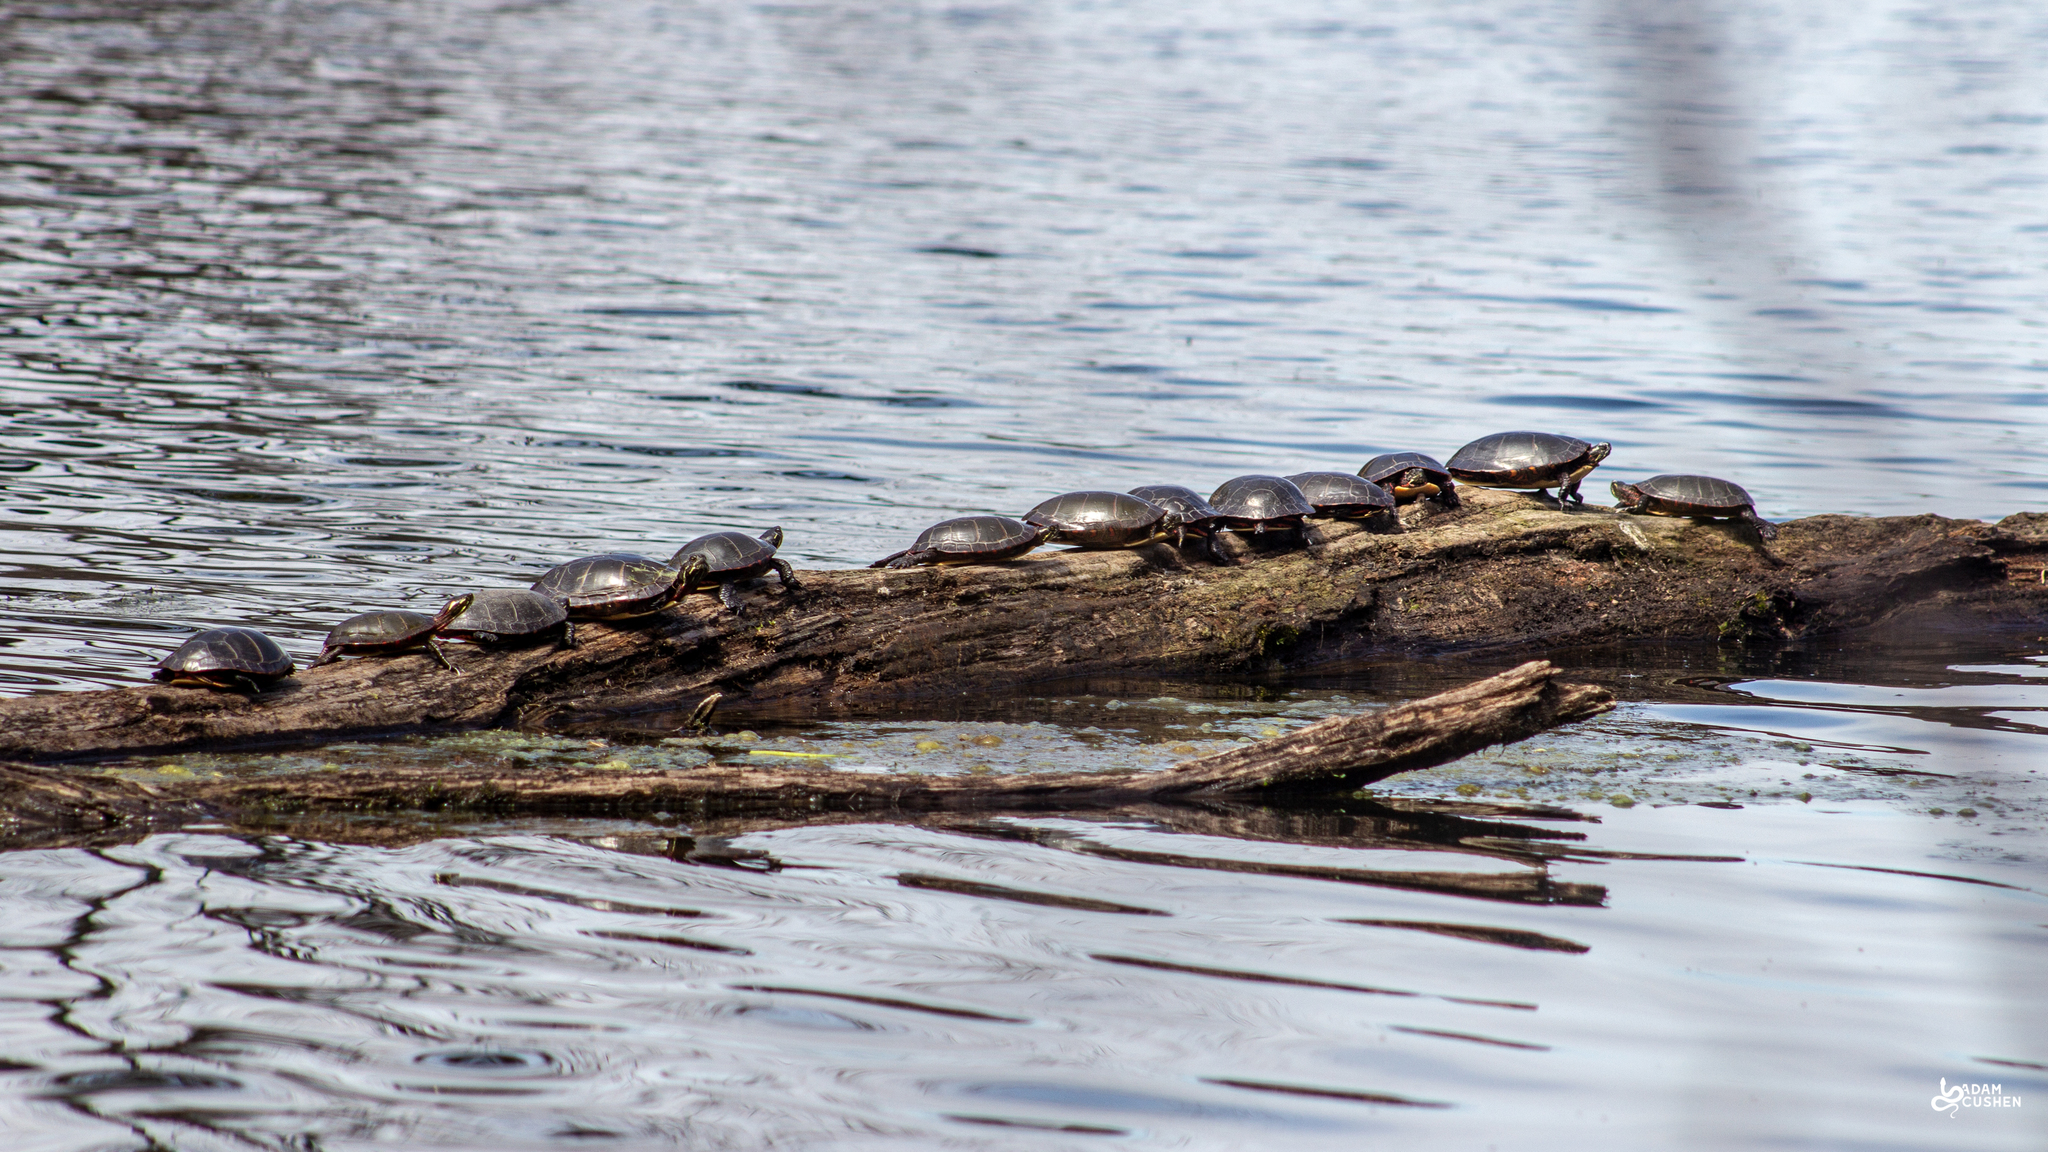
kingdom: Animalia
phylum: Chordata
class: Testudines
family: Emydidae
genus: Chrysemys
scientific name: Chrysemys picta
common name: Painted turtle
